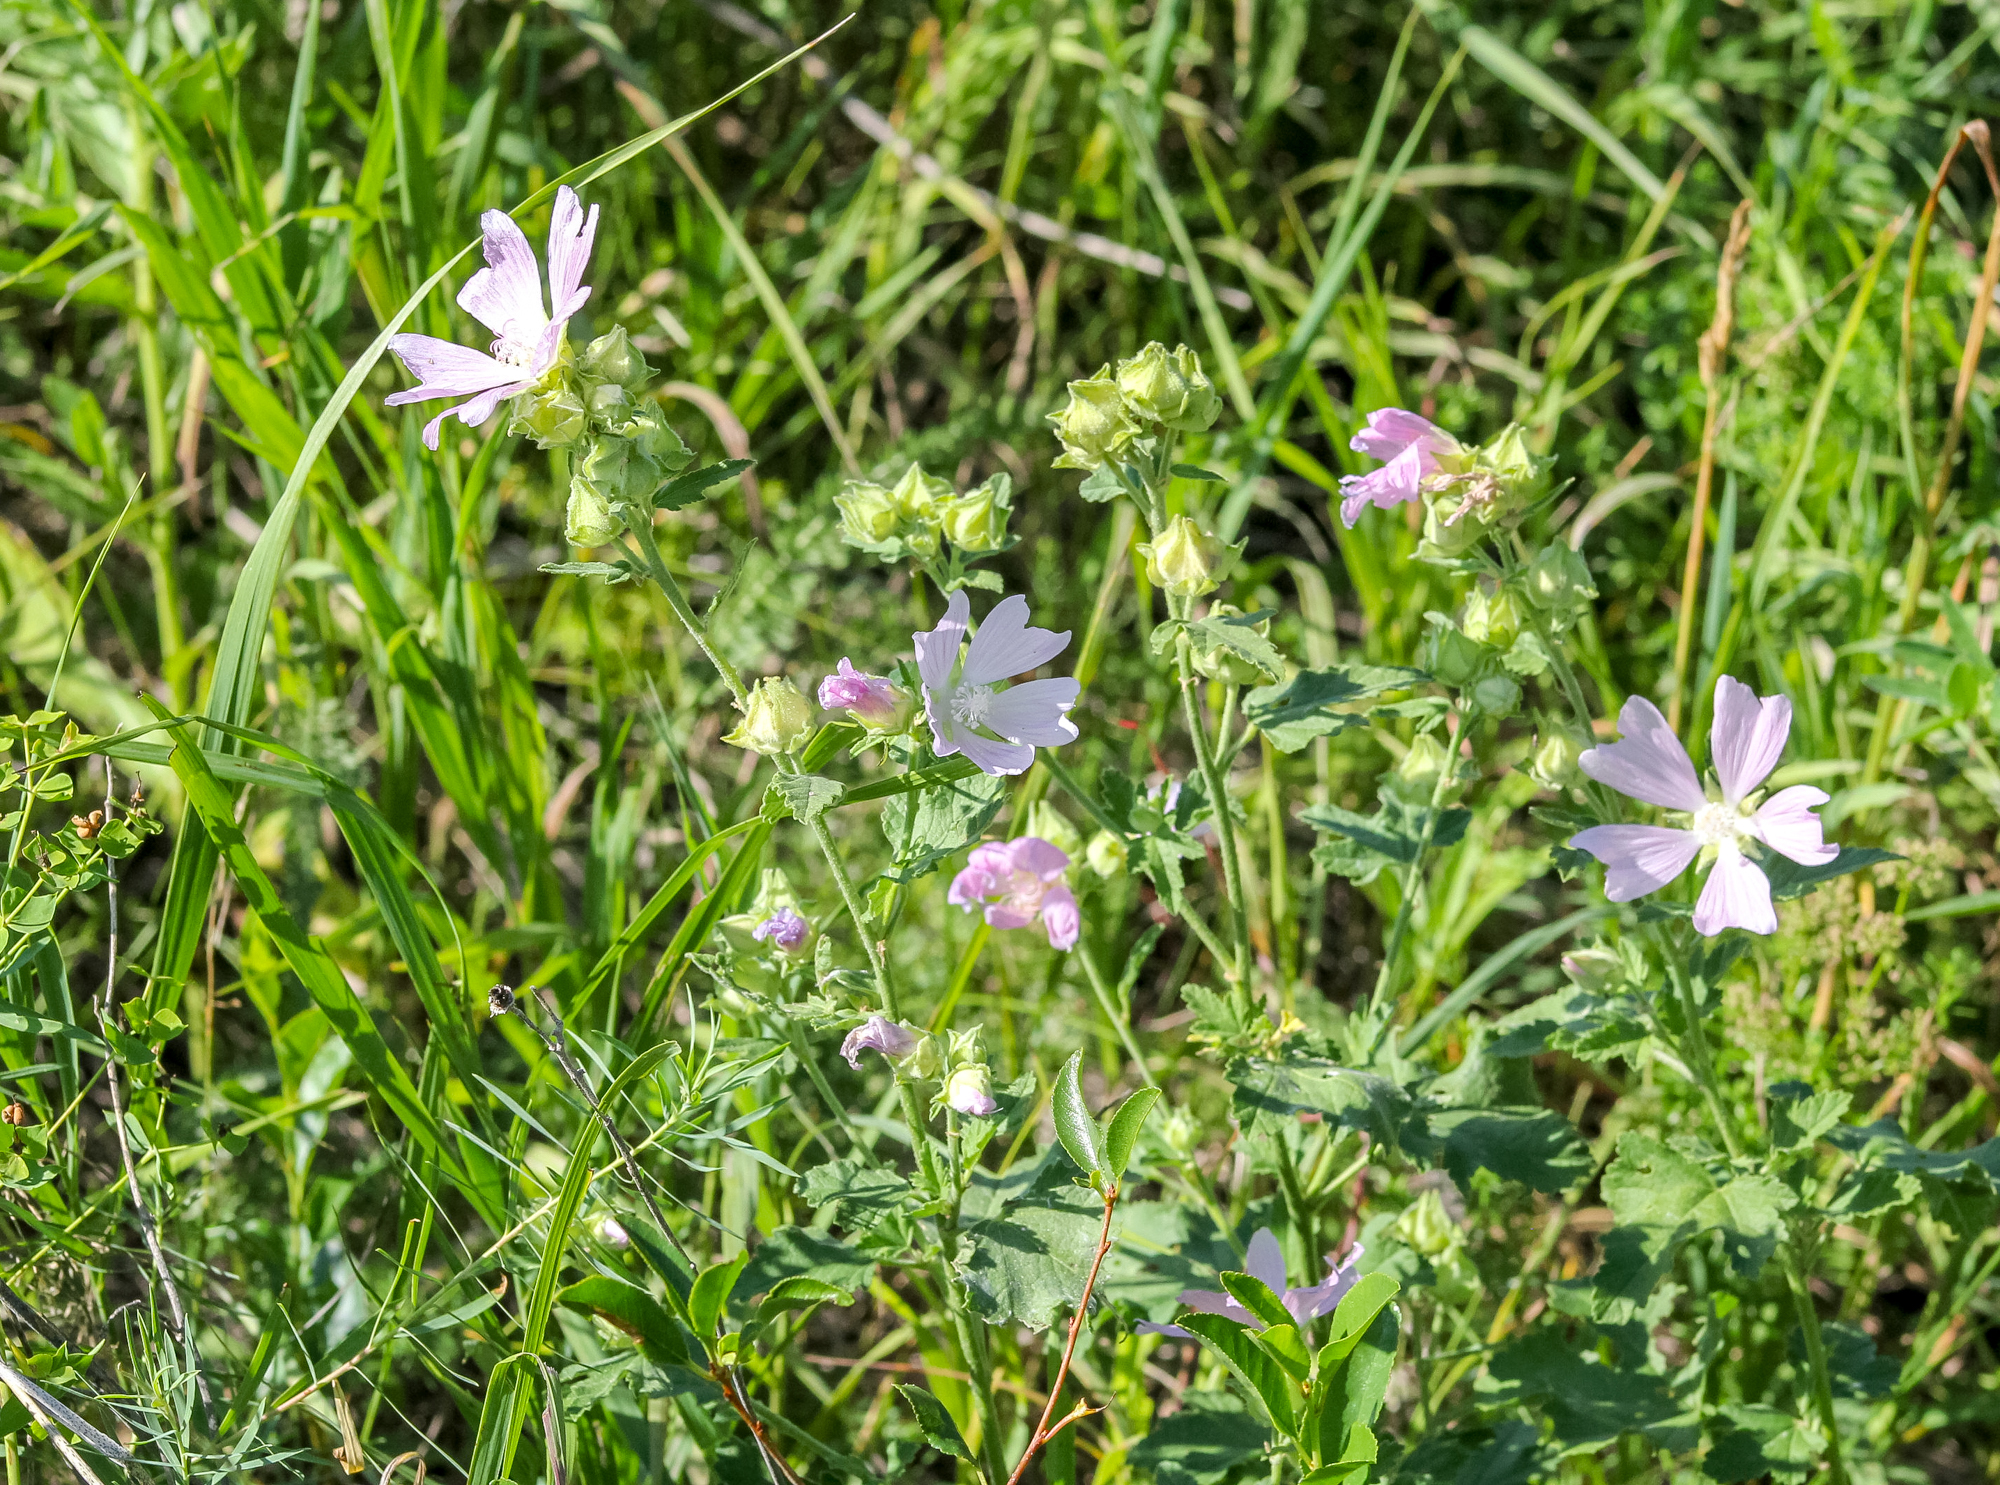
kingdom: Plantae
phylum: Tracheophyta
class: Magnoliopsida
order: Malvales
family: Malvaceae
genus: Malva
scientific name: Malva thuringiaca
